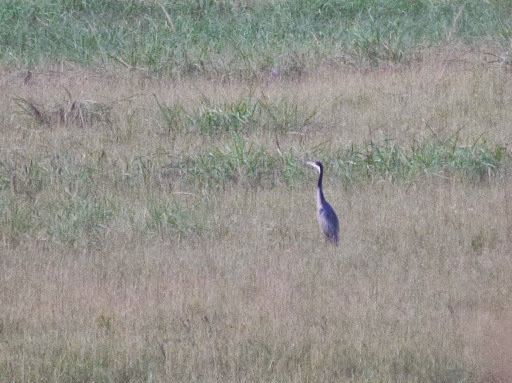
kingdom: Animalia
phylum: Chordata
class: Aves
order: Pelecaniformes
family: Ardeidae
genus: Ardea
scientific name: Ardea melanocephala
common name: Black-headed heron
